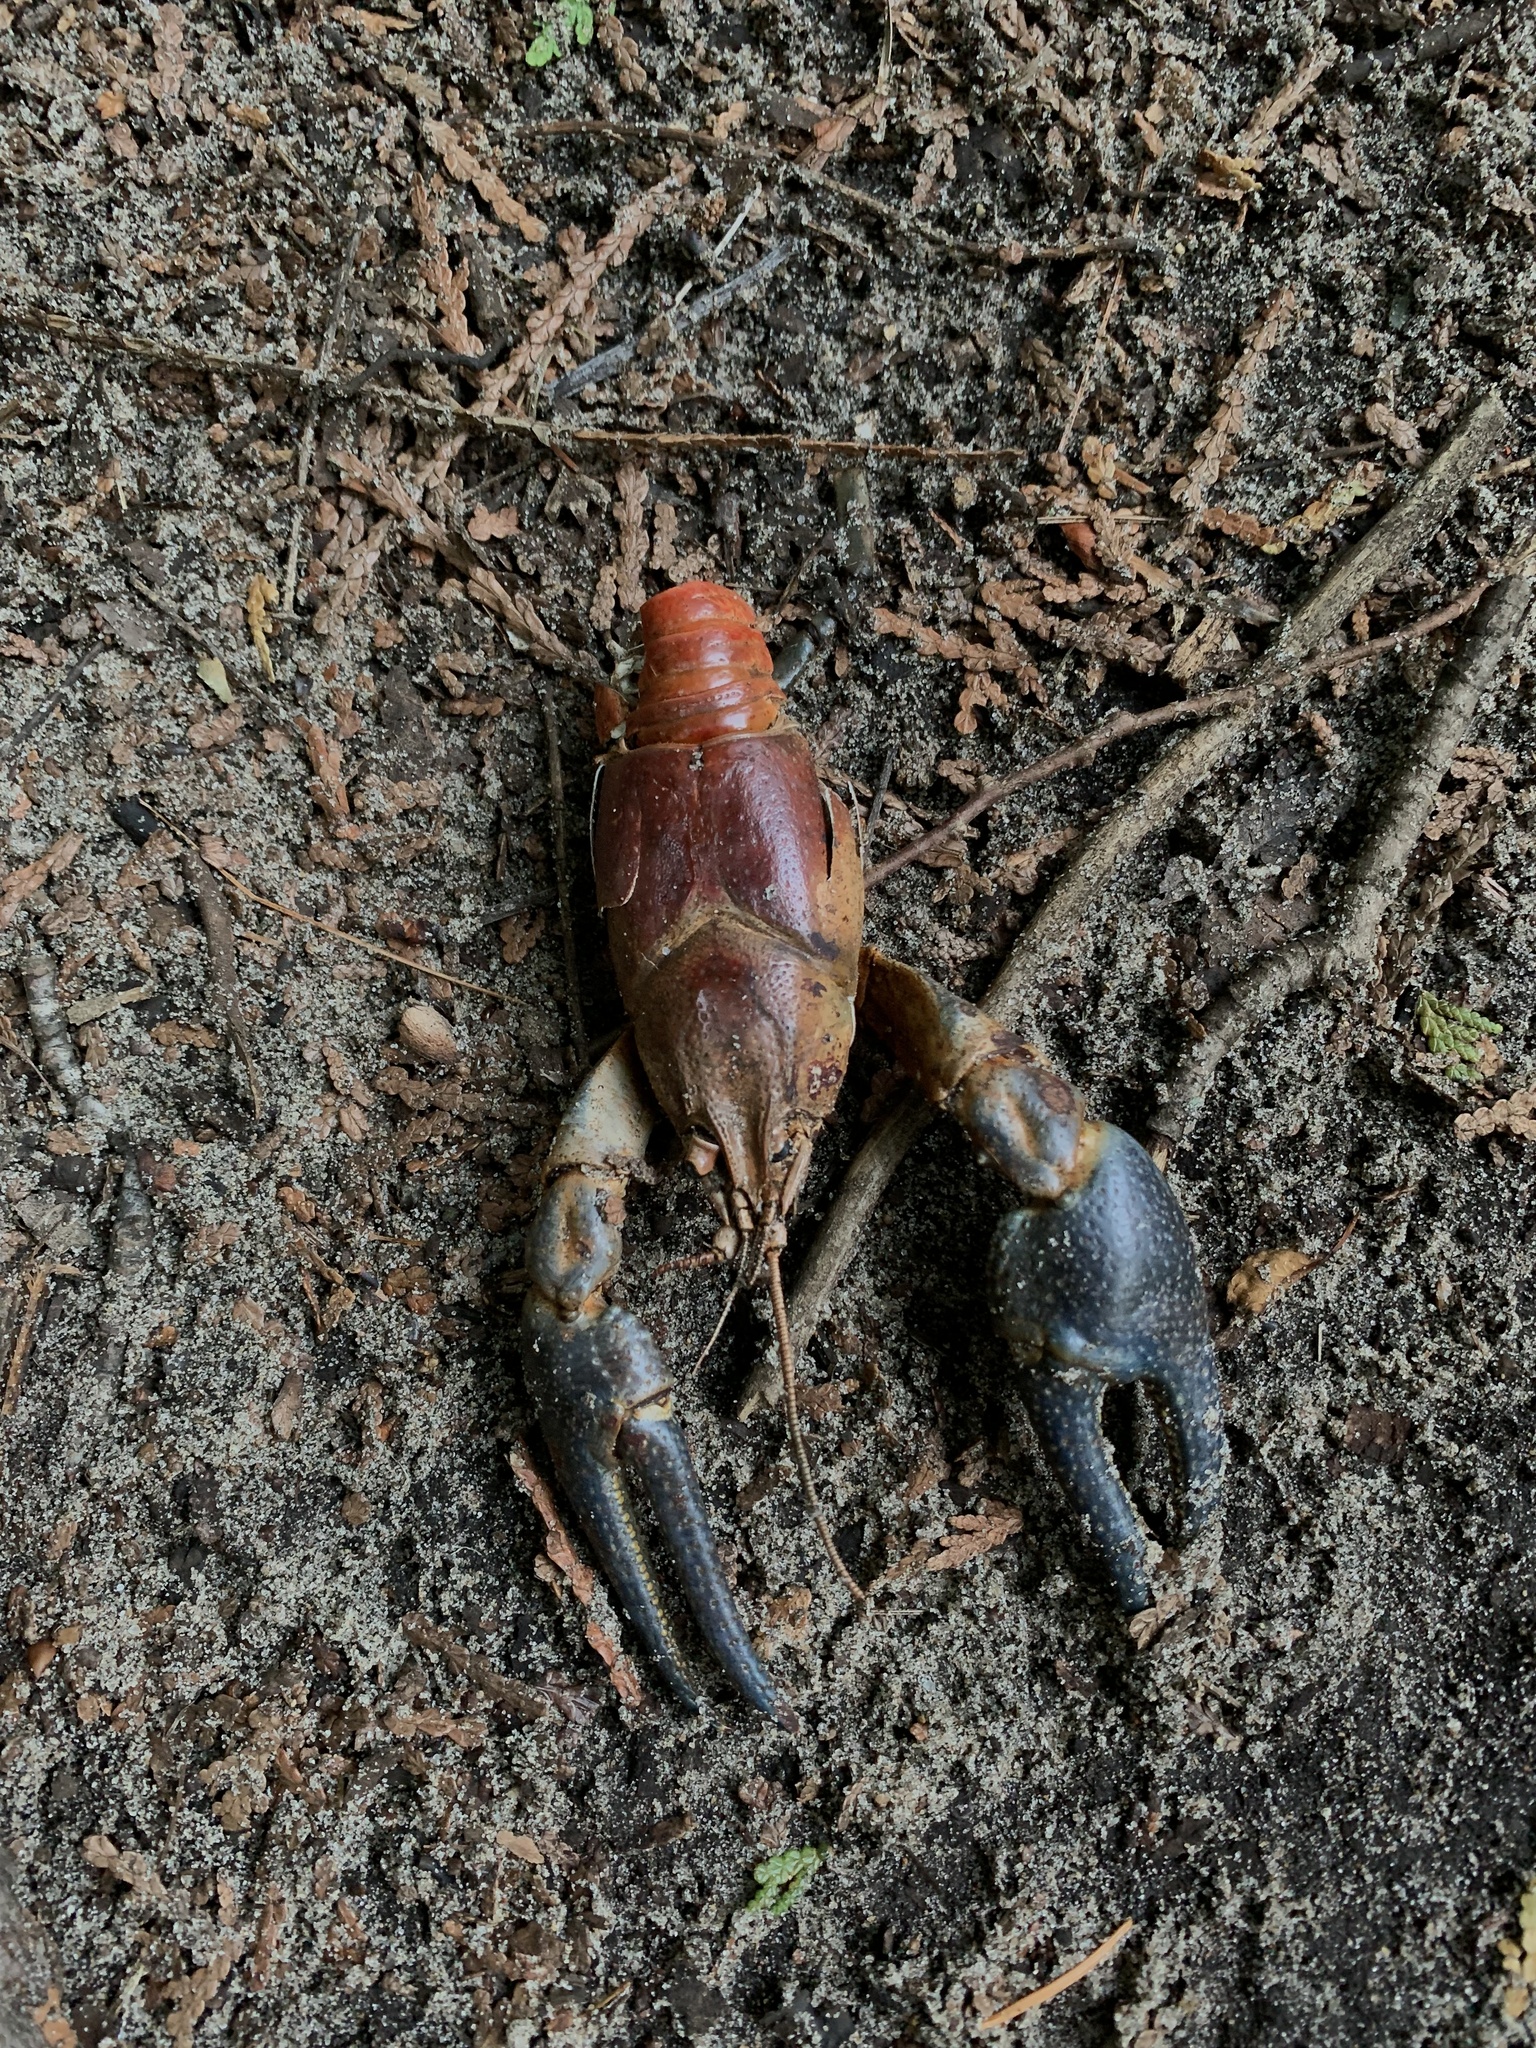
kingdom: Animalia
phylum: Arthropoda
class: Malacostraca
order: Decapoda
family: Cambaridae
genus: Faxonius
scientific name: Faxonius rusticus
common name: Rusty crayfish
